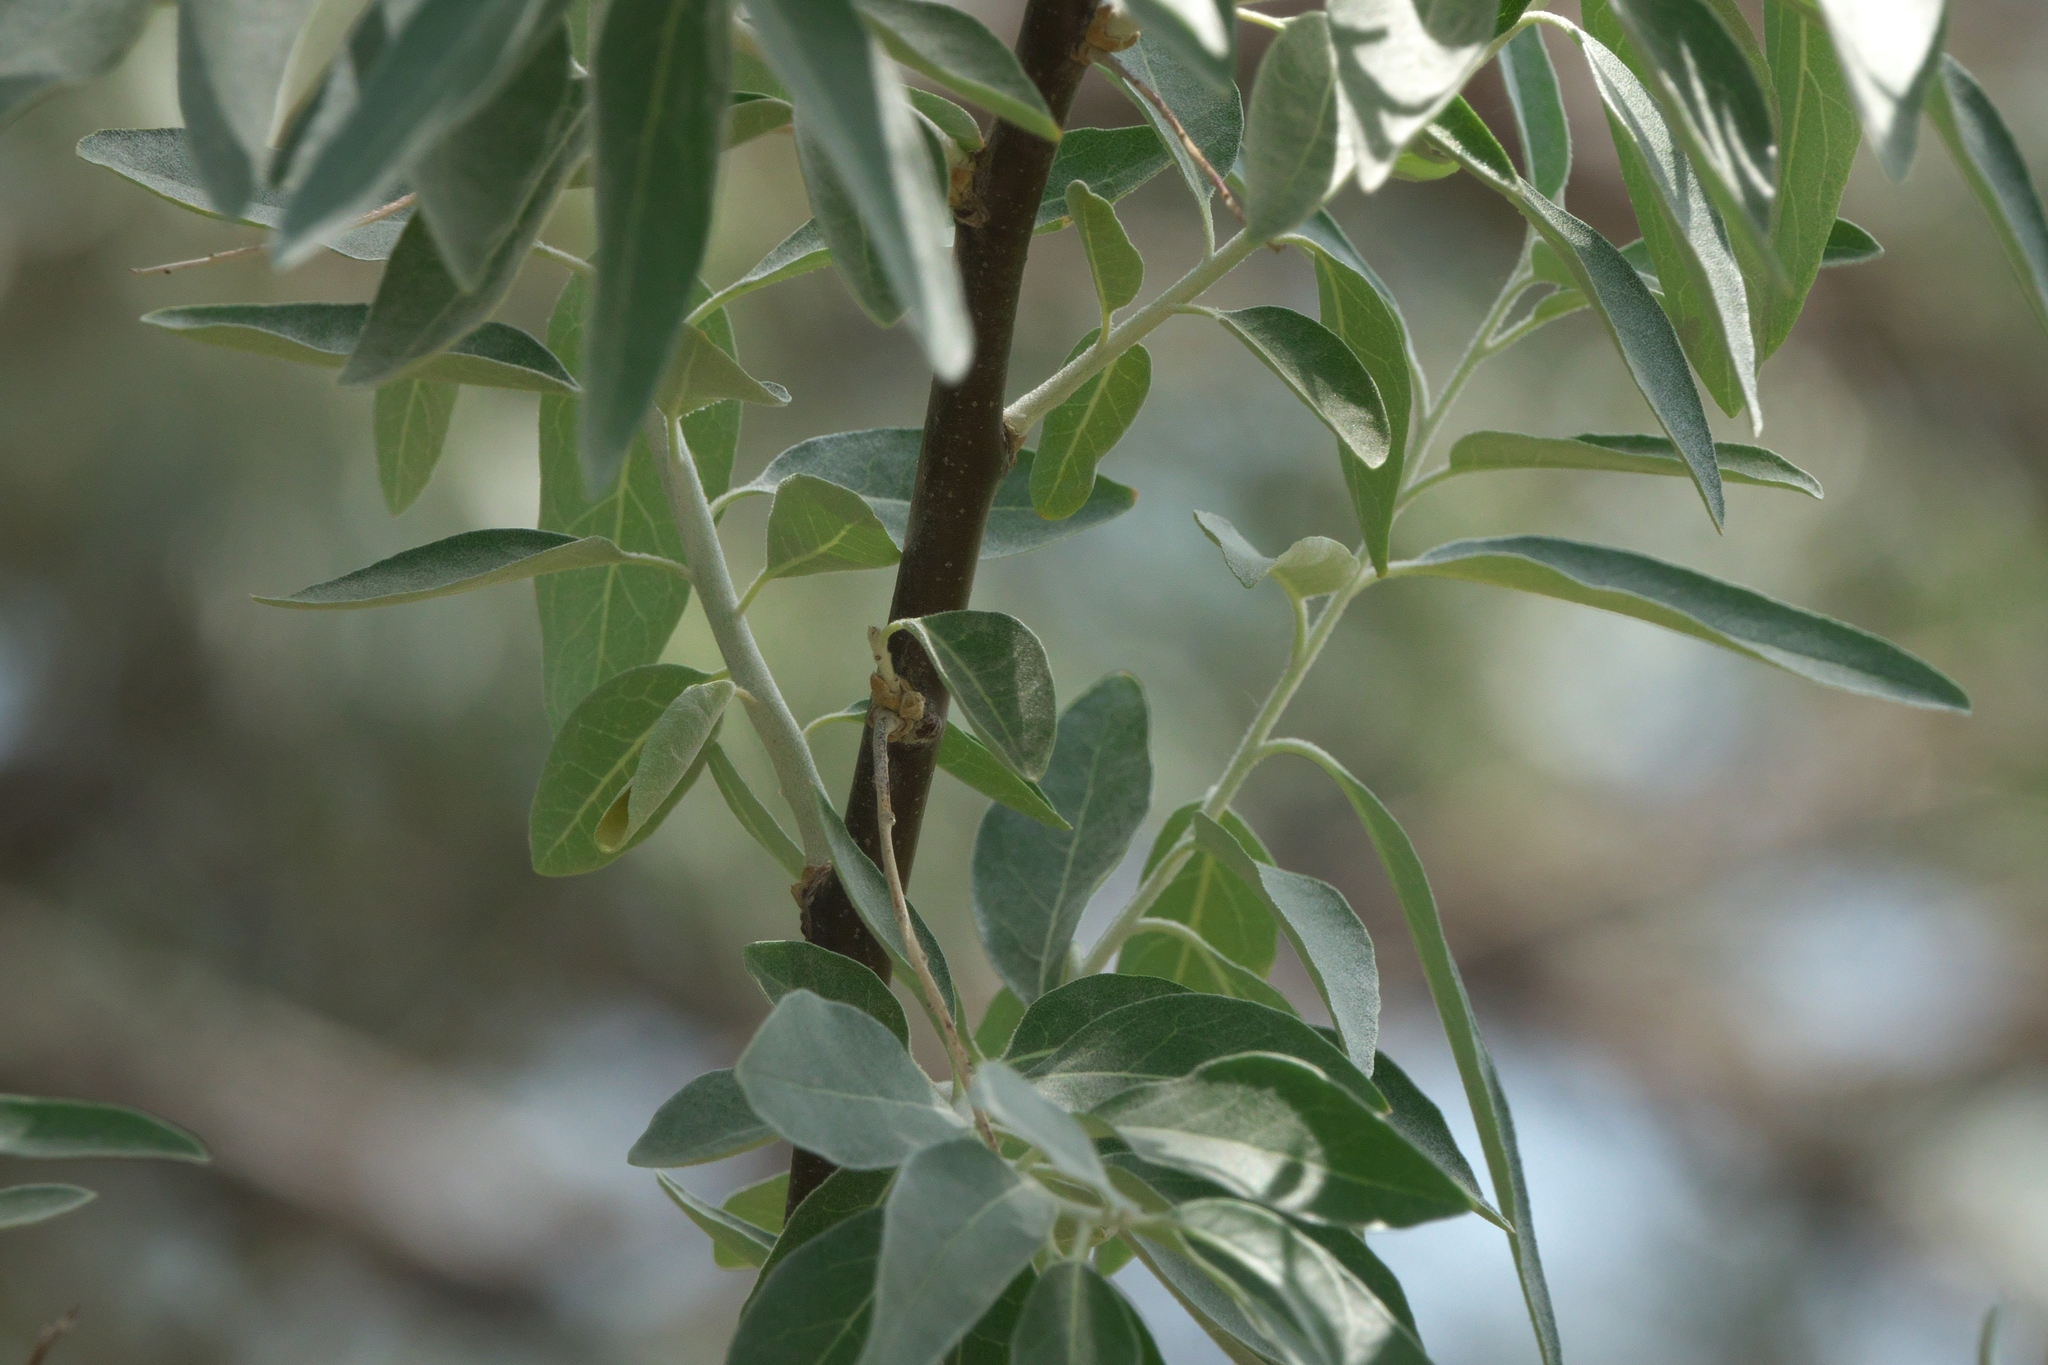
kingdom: Plantae
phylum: Tracheophyta
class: Magnoliopsida
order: Rosales
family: Elaeagnaceae
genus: Elaeagnus
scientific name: Elaeagnus angustifolia
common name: Russian olive
